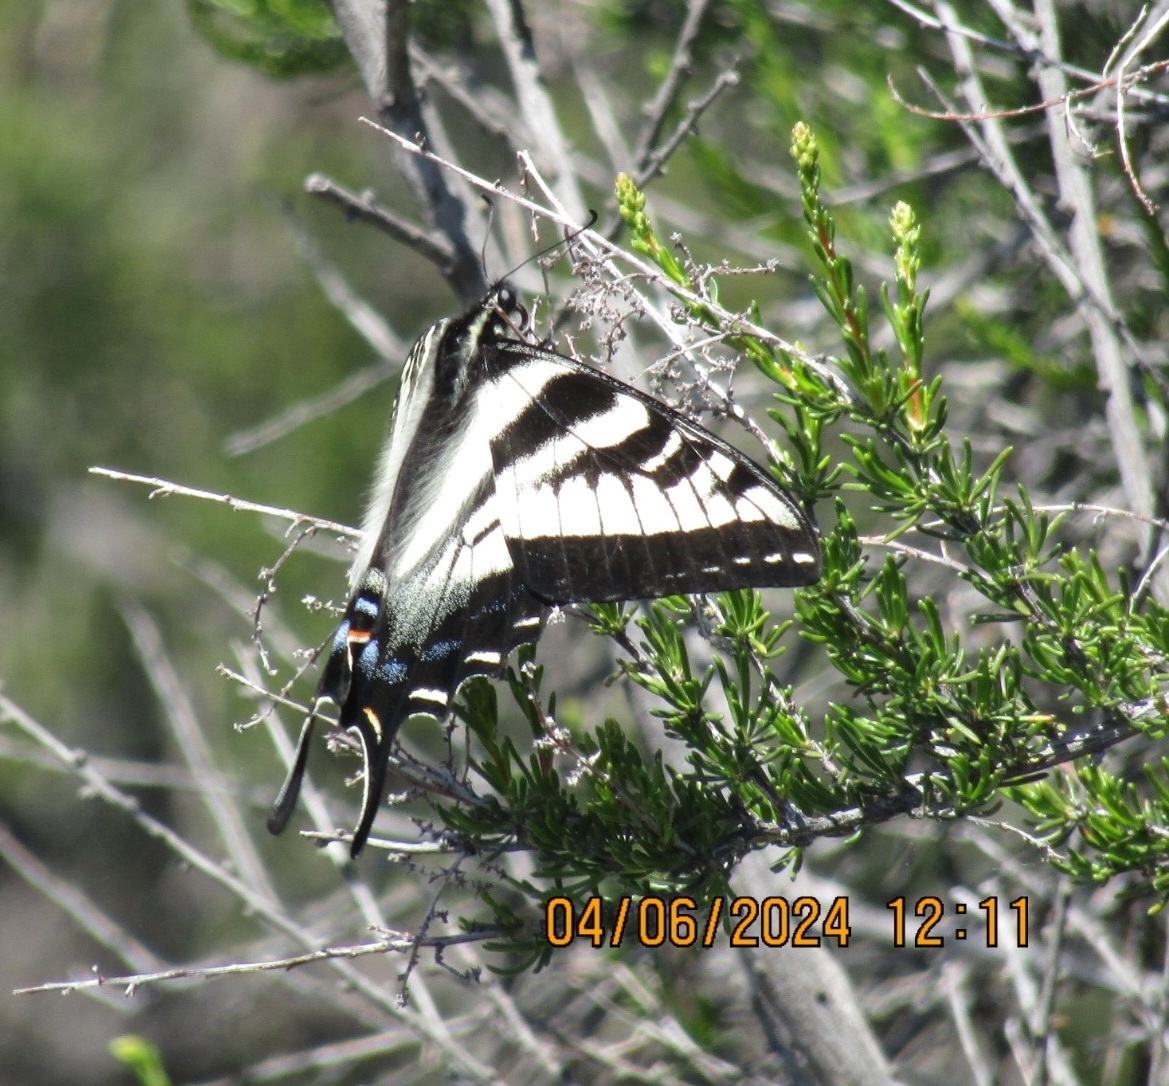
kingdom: Animalia
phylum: Arthropoda
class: Insecta
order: Lepidoptera
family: Papilionidae
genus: Papilio
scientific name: Papilio eurymedon
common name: Pale tiger swallowtail
